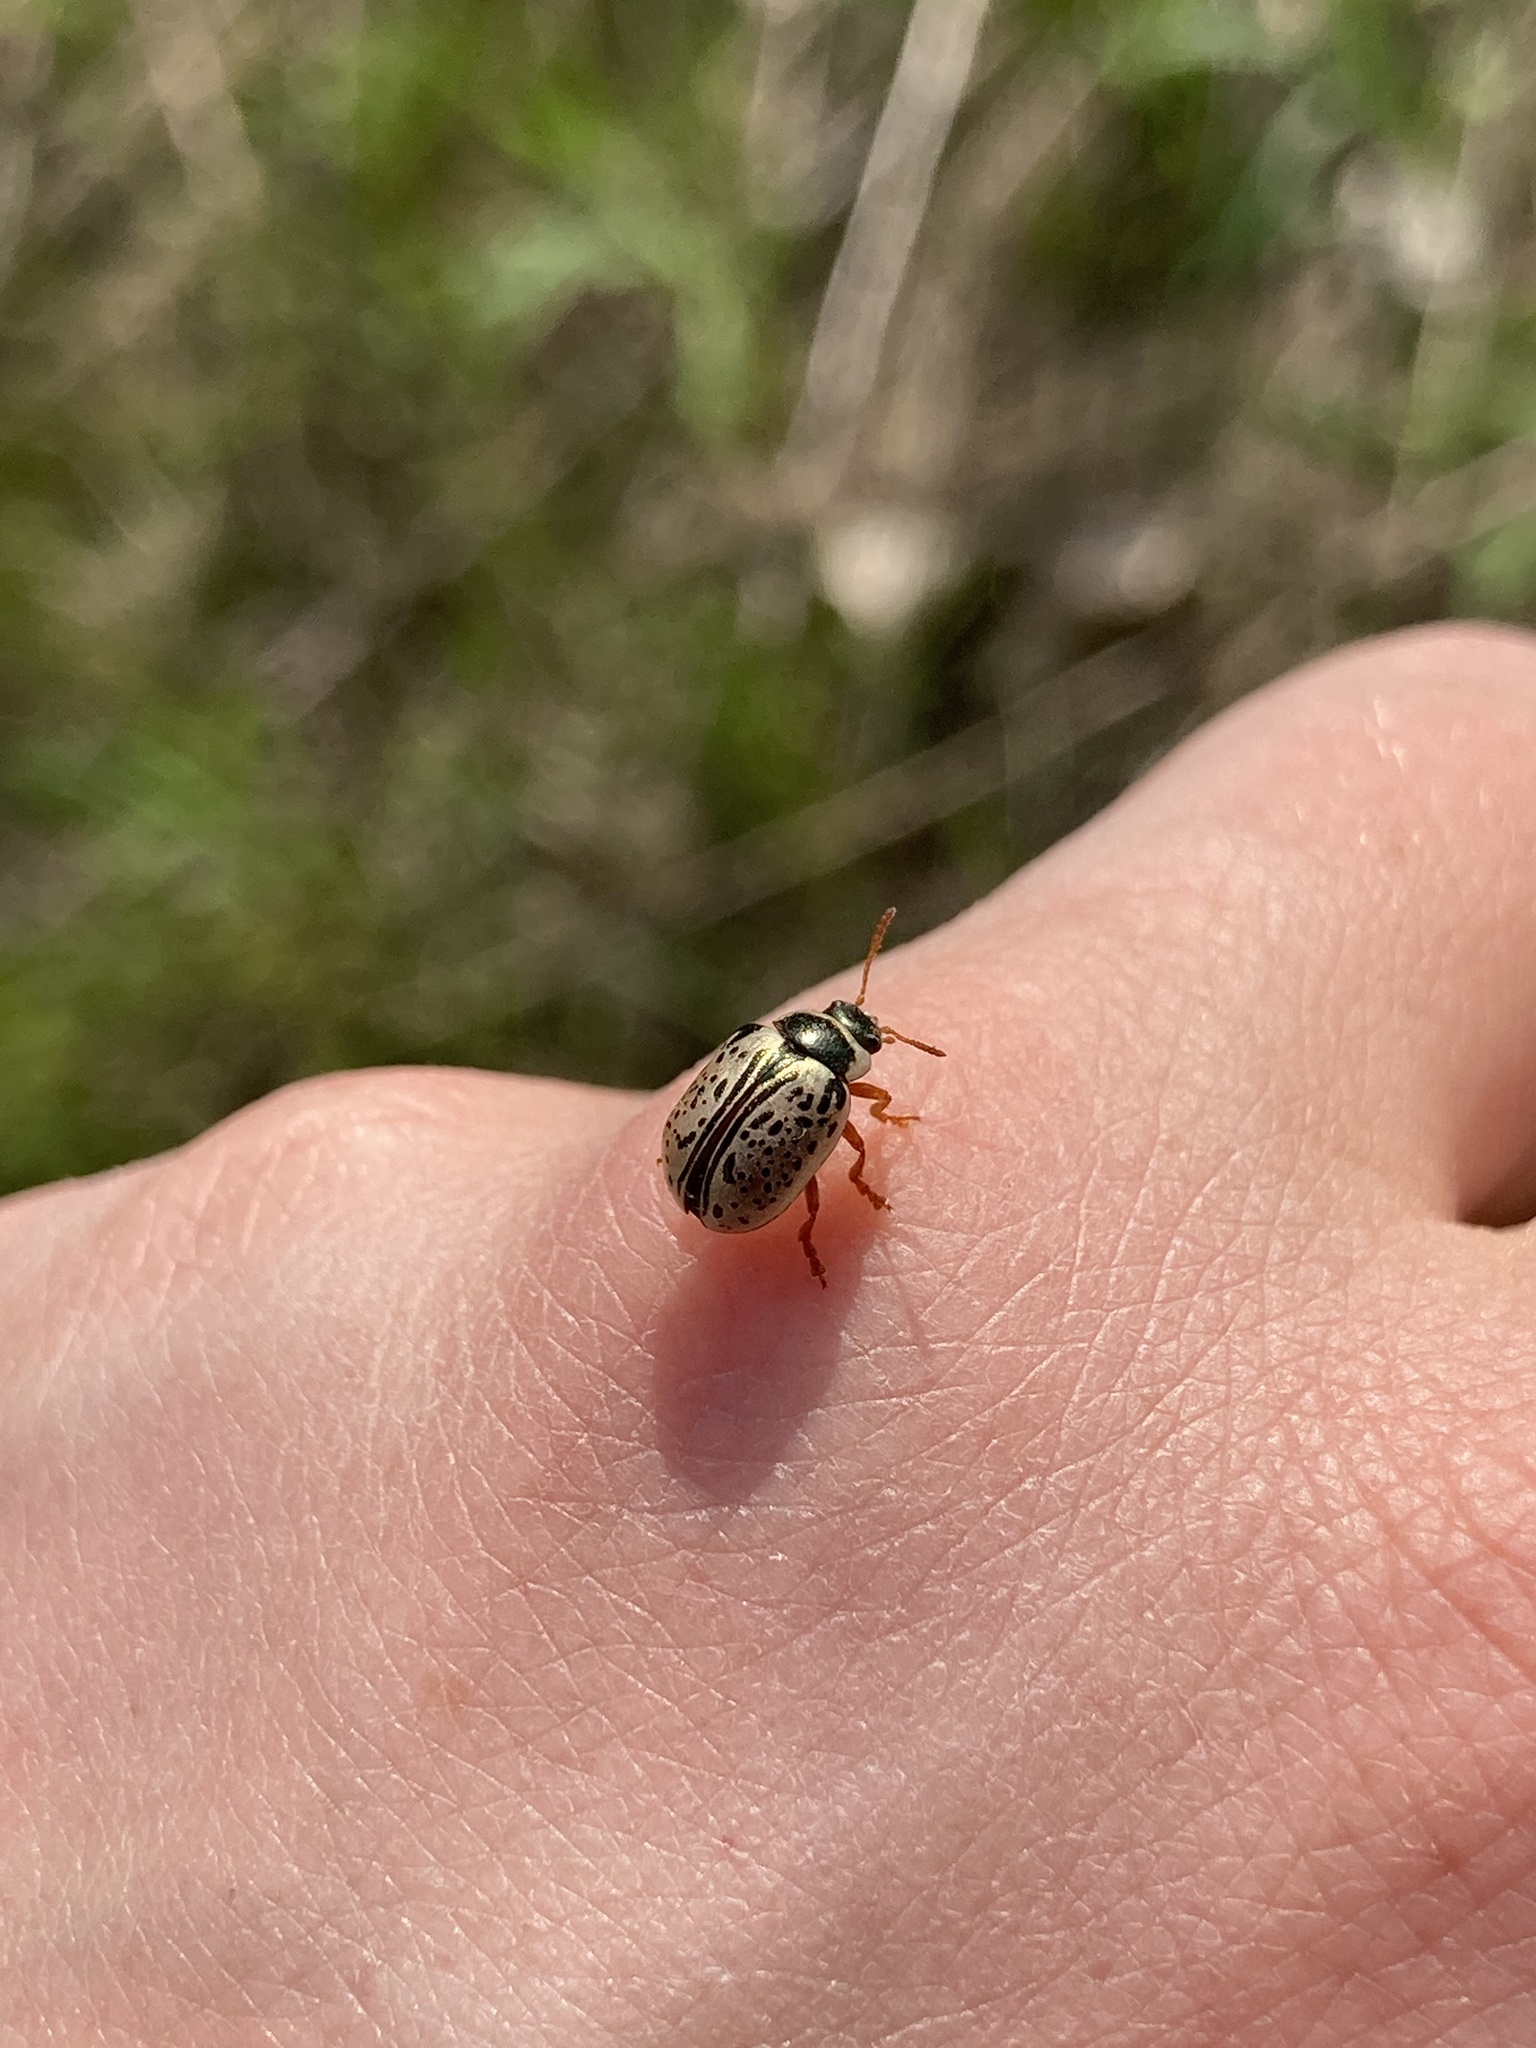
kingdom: Animalia
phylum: Arthropoda
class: Insecta
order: Coleoptera
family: Chrysomelidae
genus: Calligrapha
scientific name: Calligrapha multipunctata
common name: Common willow calligrapher beetle
